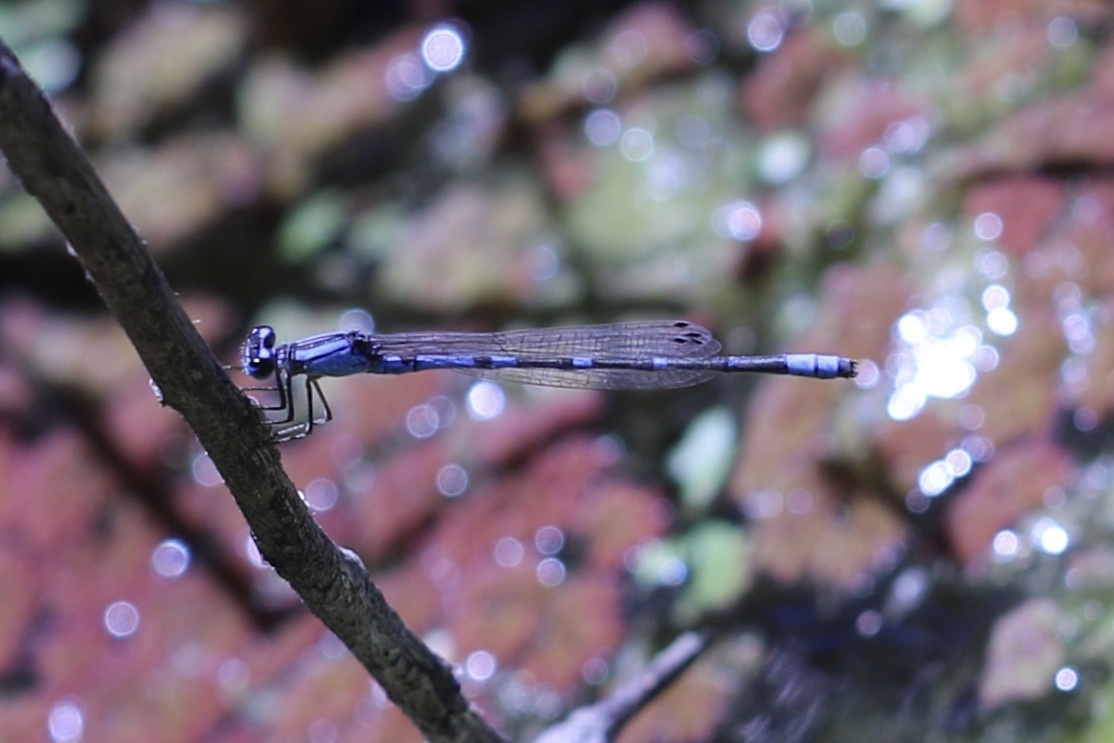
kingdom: Animalia
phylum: Arthropoda
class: Insecta
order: Odonata
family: Coenagrionidae
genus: Enallagma
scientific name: Enallagma praevarum
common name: Arroyo bluet
